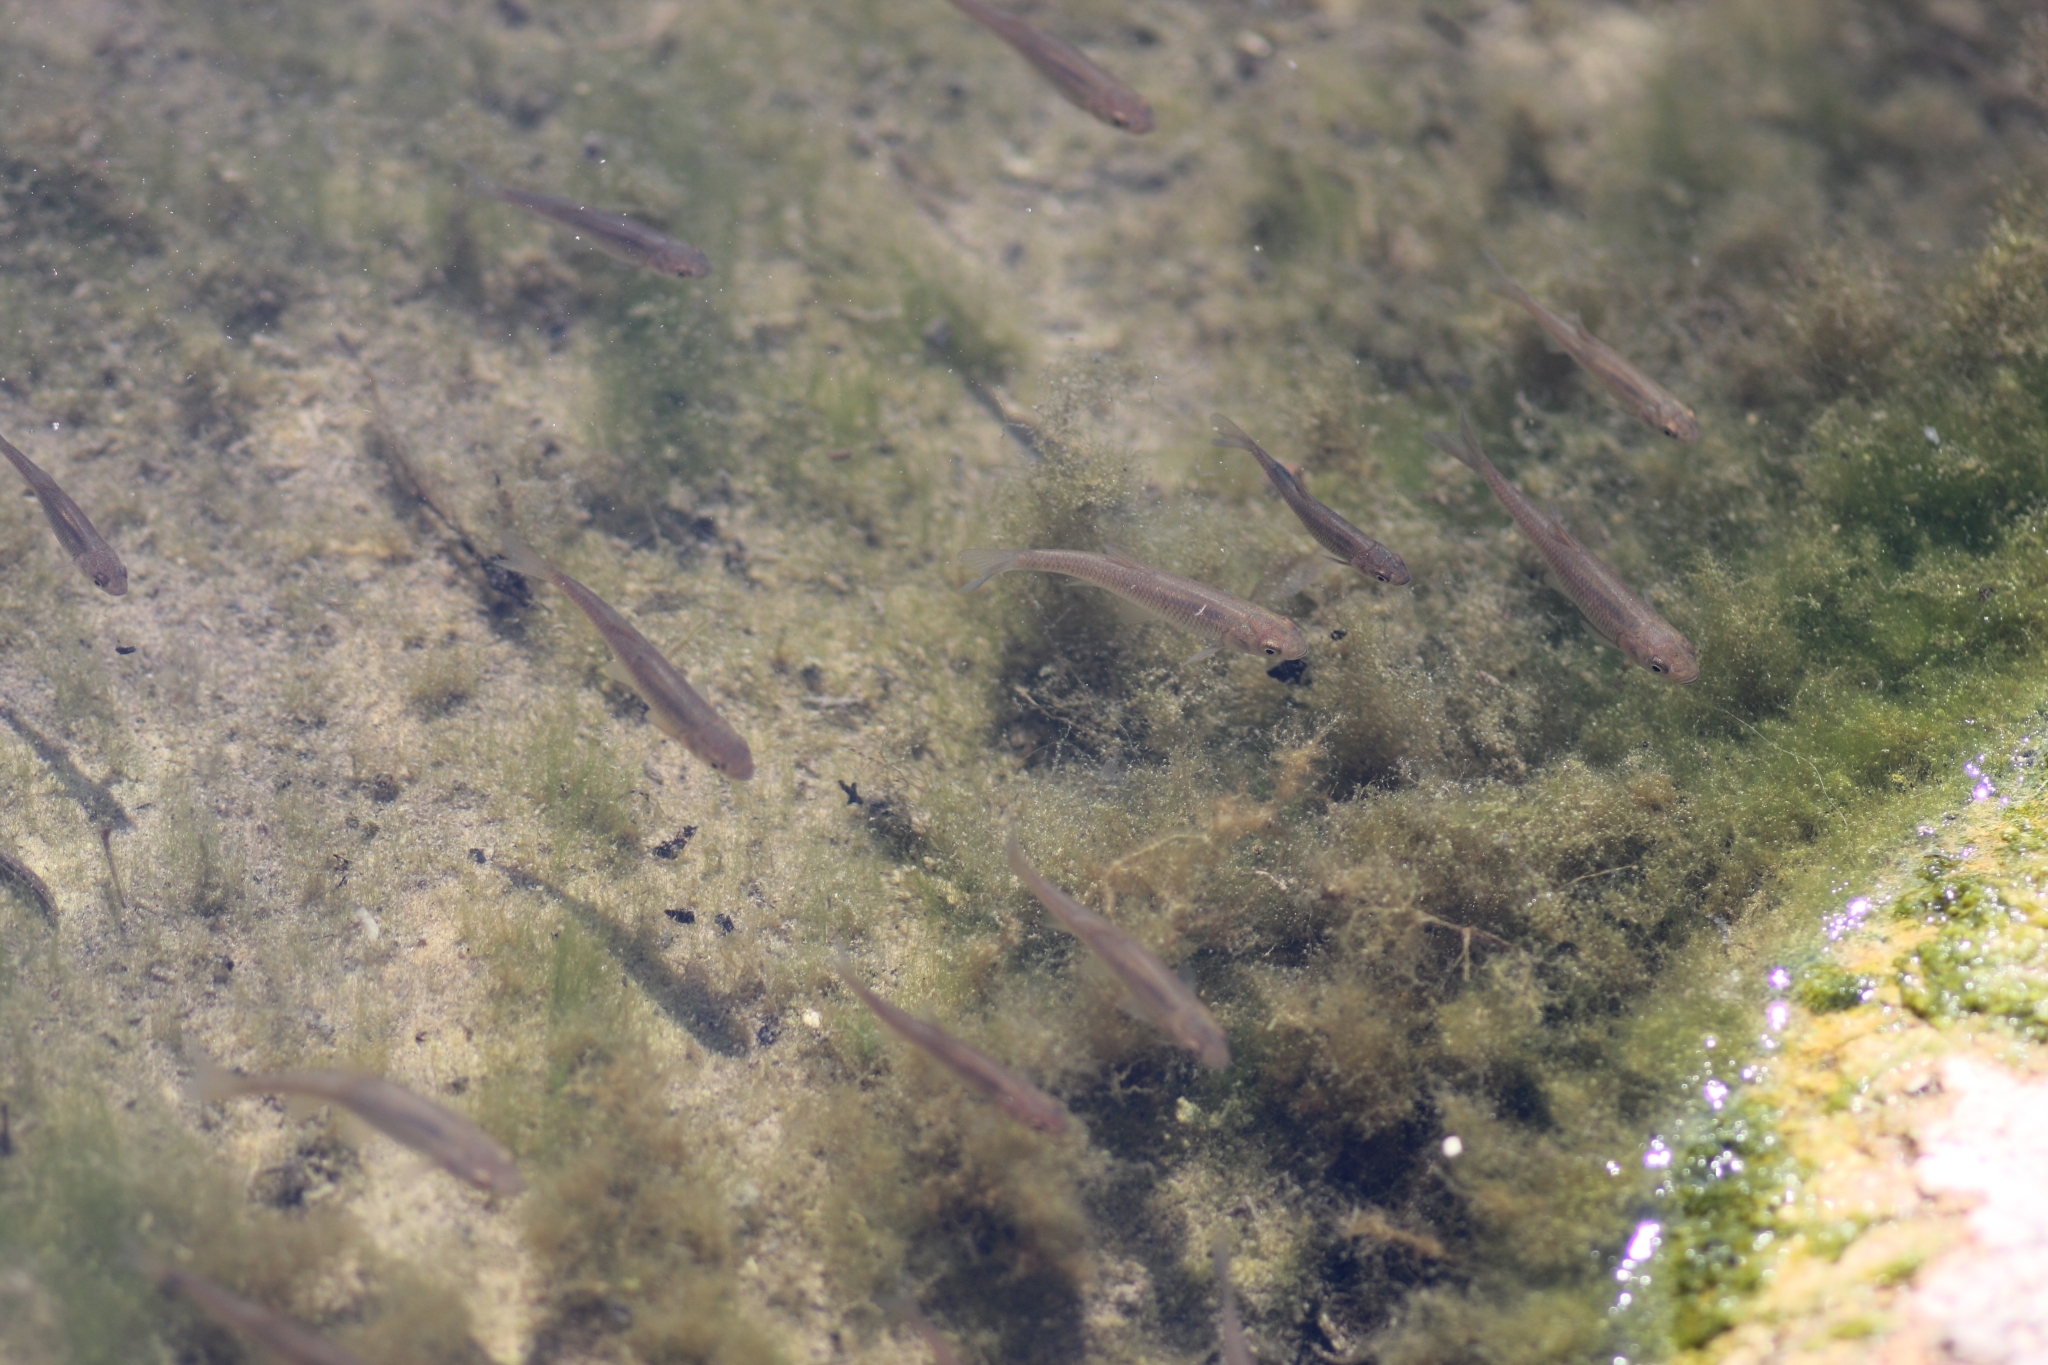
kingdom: Animalia
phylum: Chordata
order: Cypriniformes
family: Cyprinidae
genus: Alburnus
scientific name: Alburnus alburnus
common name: Bleak
